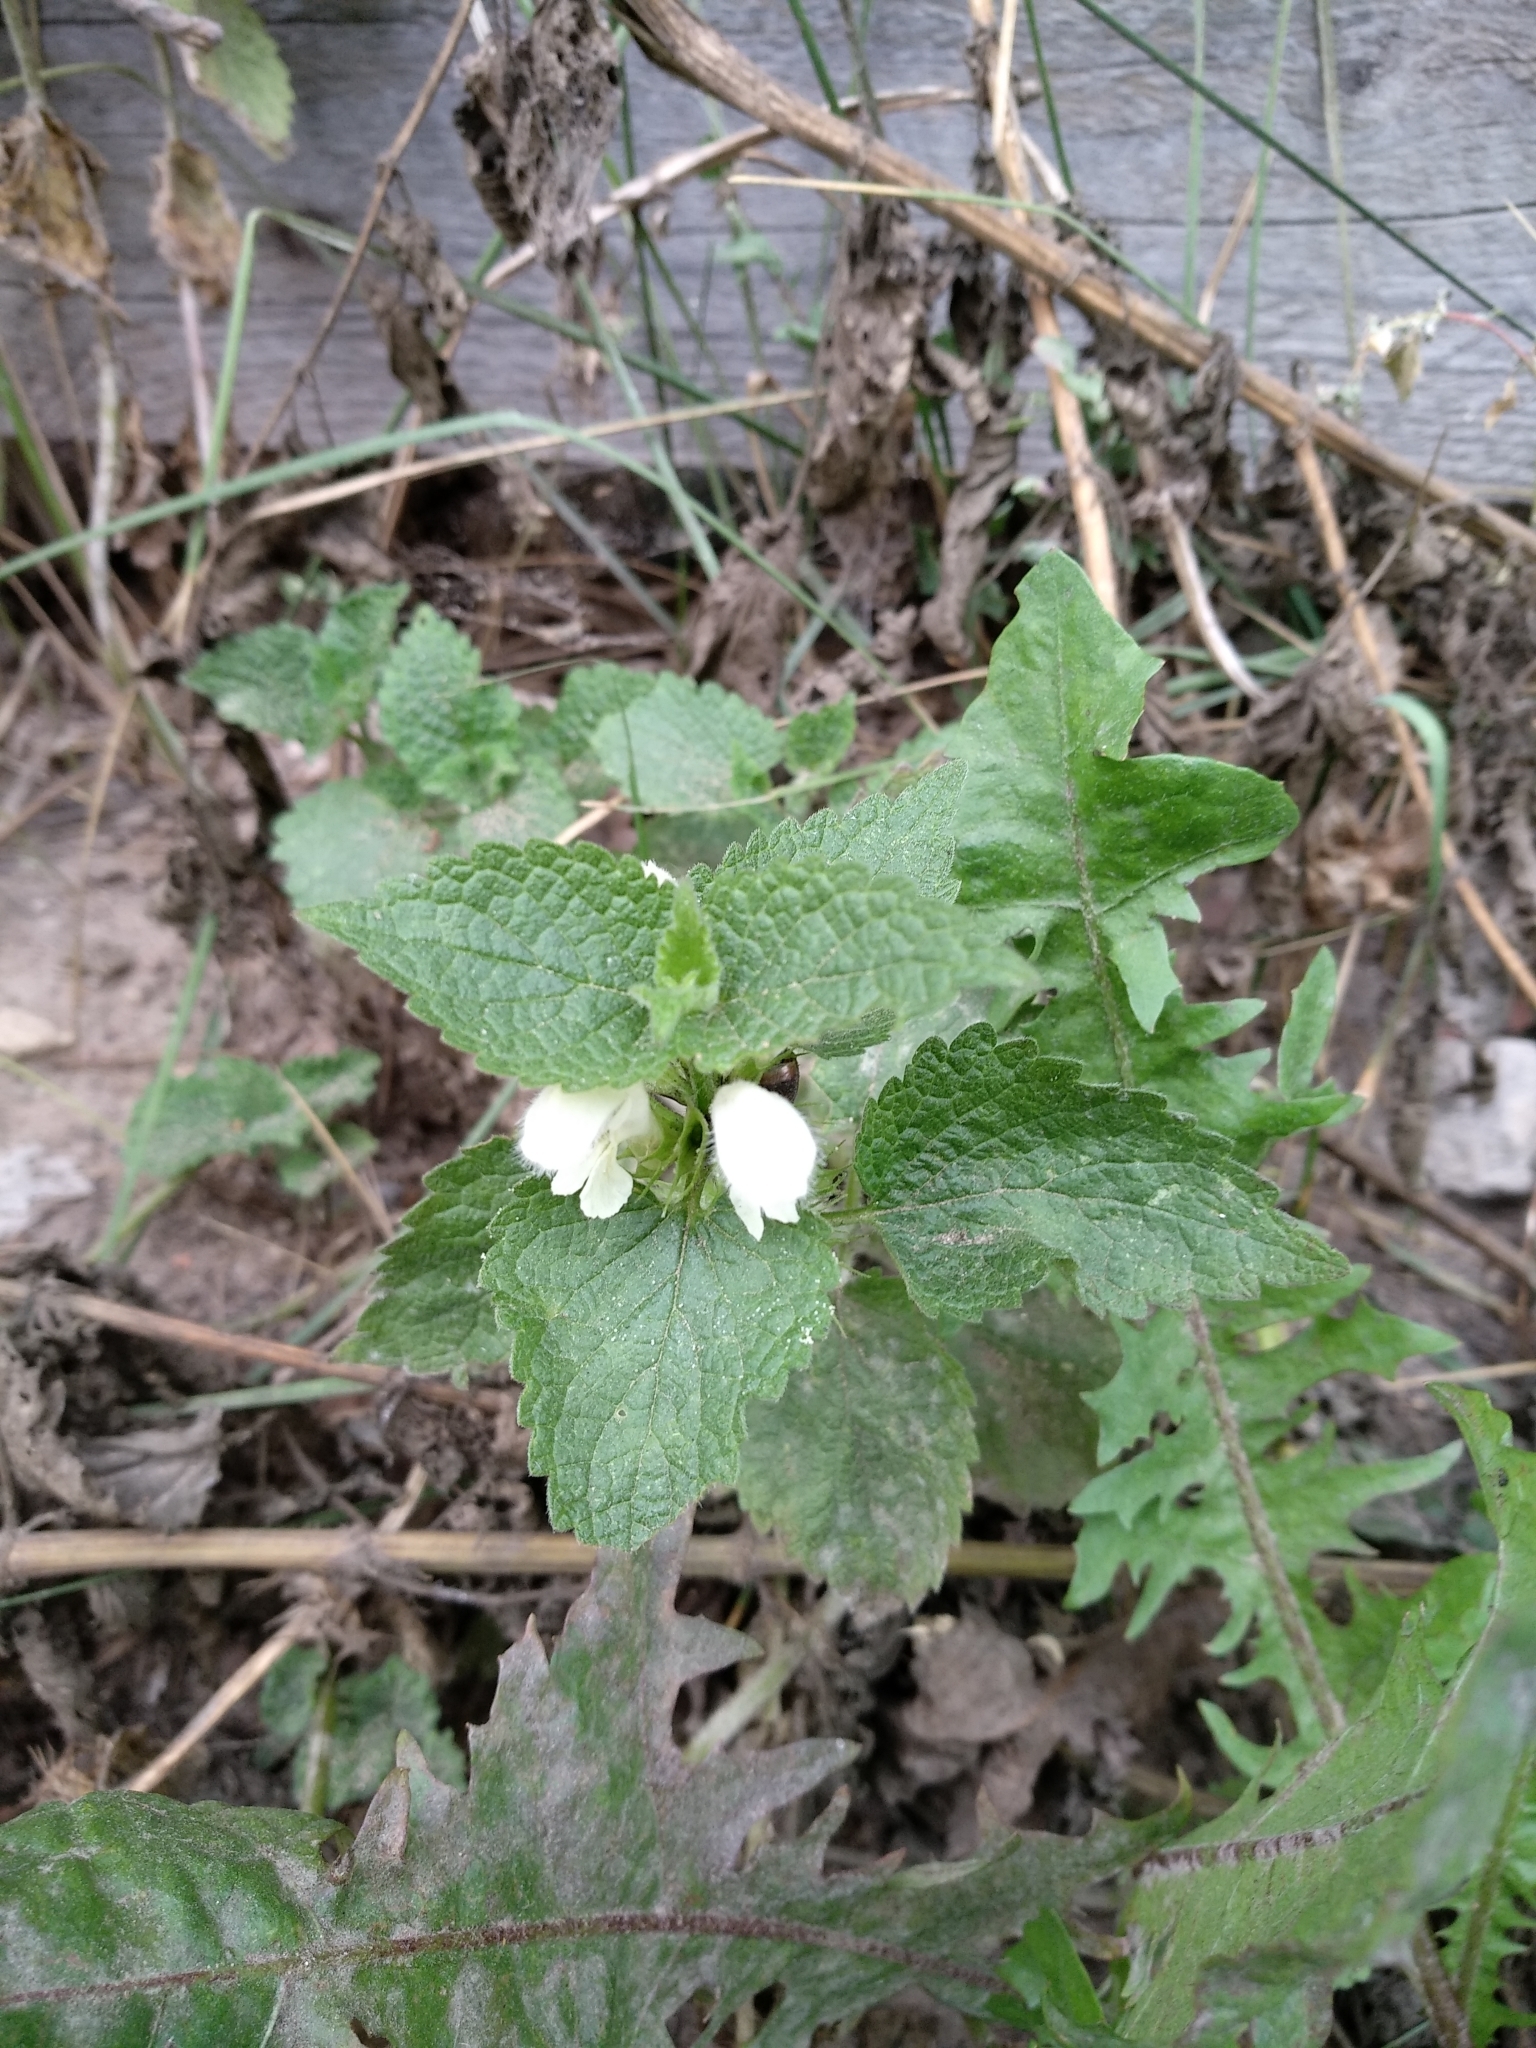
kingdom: Plantae
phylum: Tracheophyta
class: Magnoliopsida
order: Lamiales
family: Lamiaceae
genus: Lamium
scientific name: Lamium album
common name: White dead-nettle
